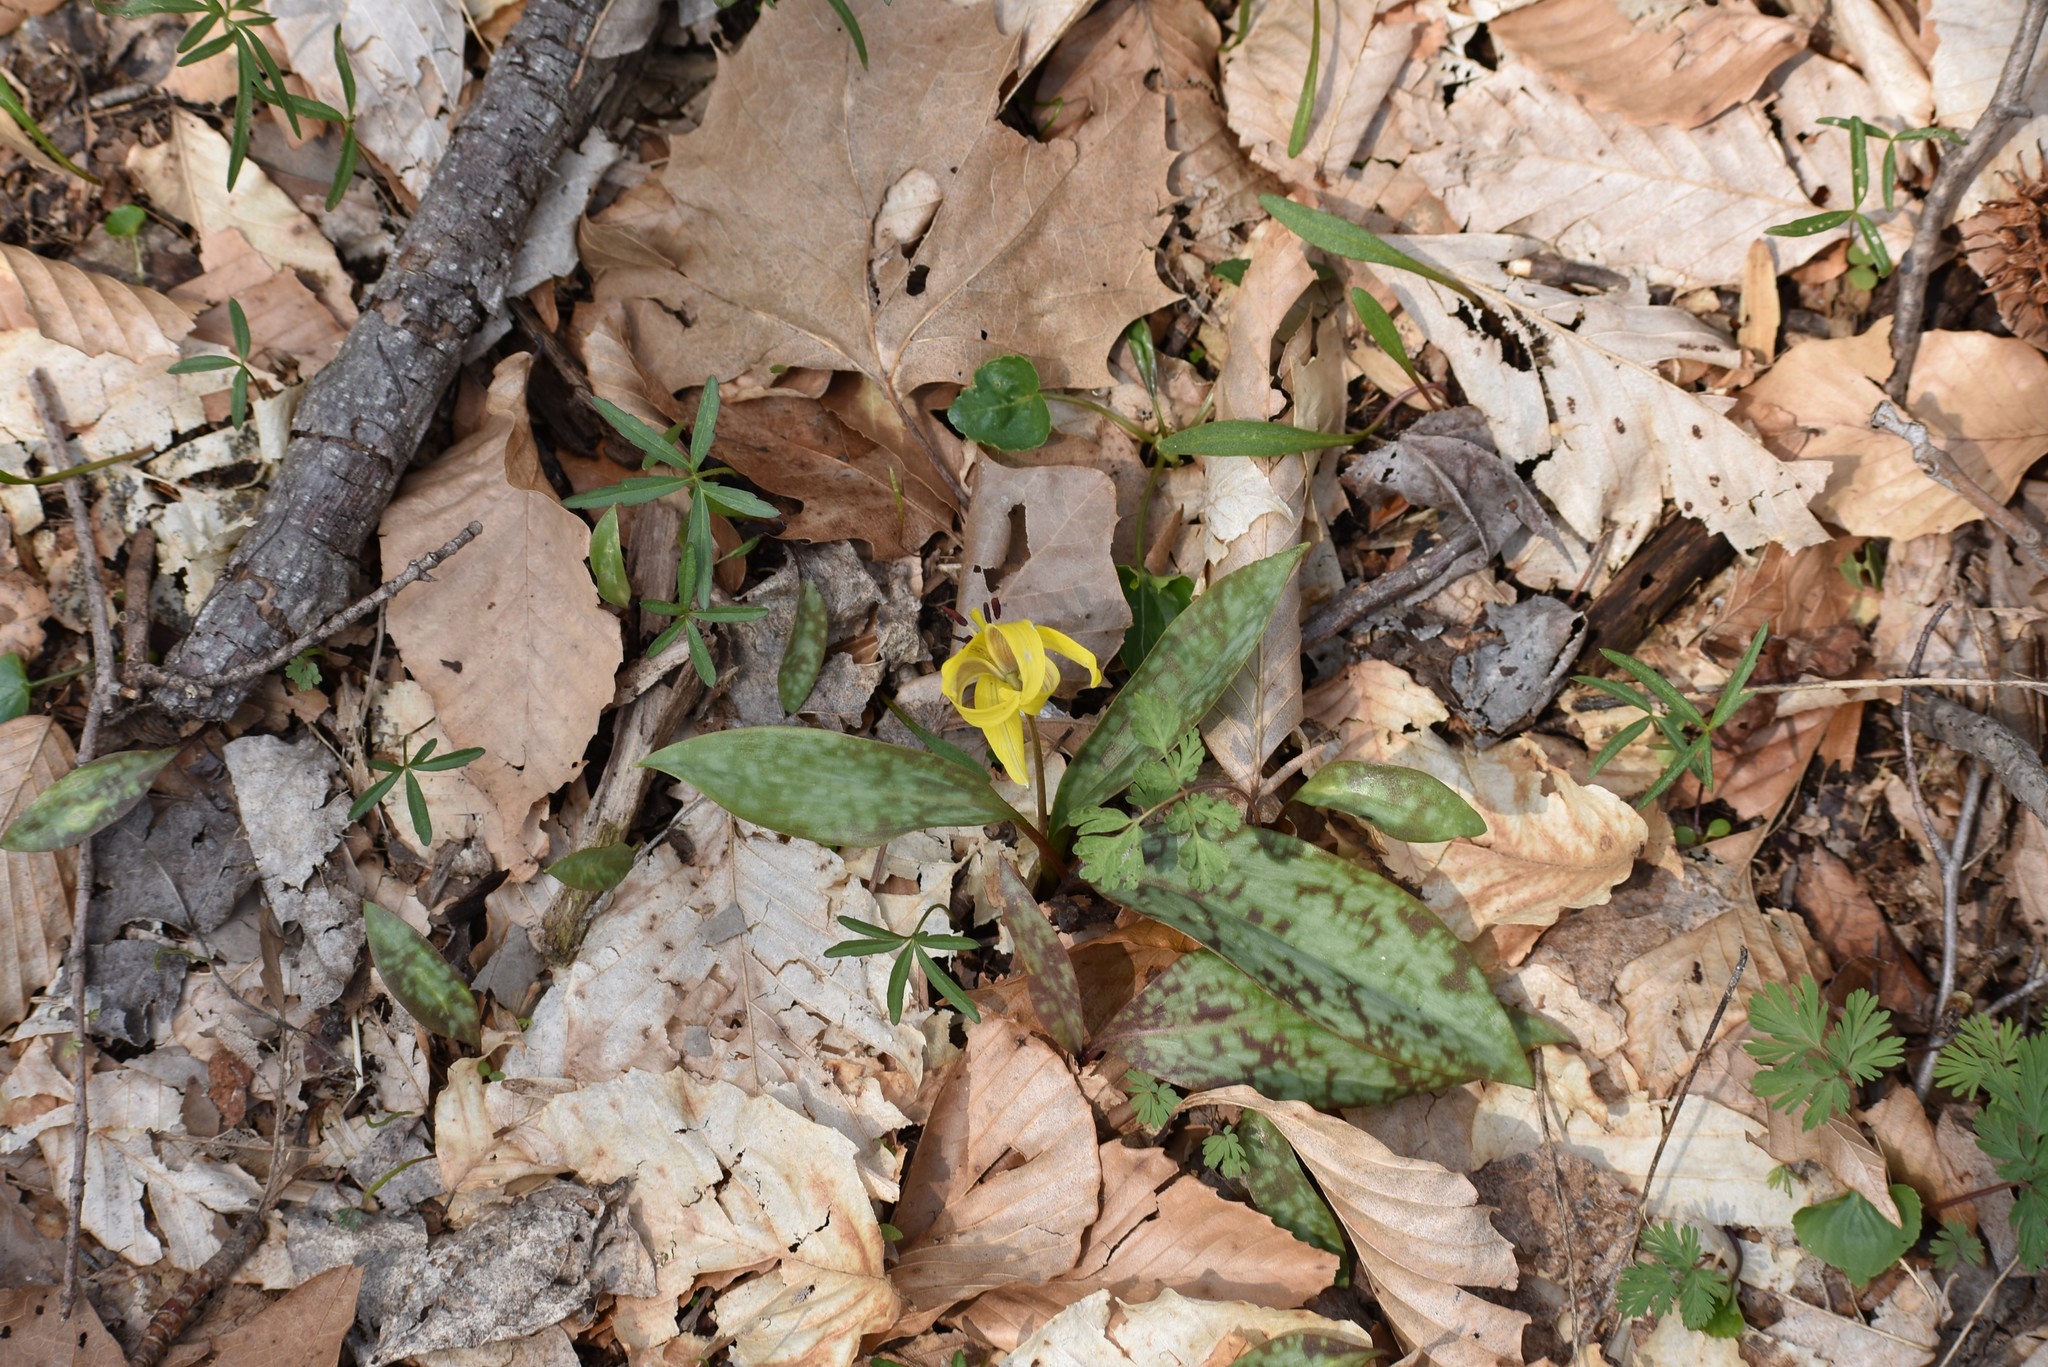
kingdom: Plantae
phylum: Tracheophyta
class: Liliopsida
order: Liliales
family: Liliaceae
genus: Erythronium
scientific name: Erythronium americanum
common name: Yellow adder's-tongue
